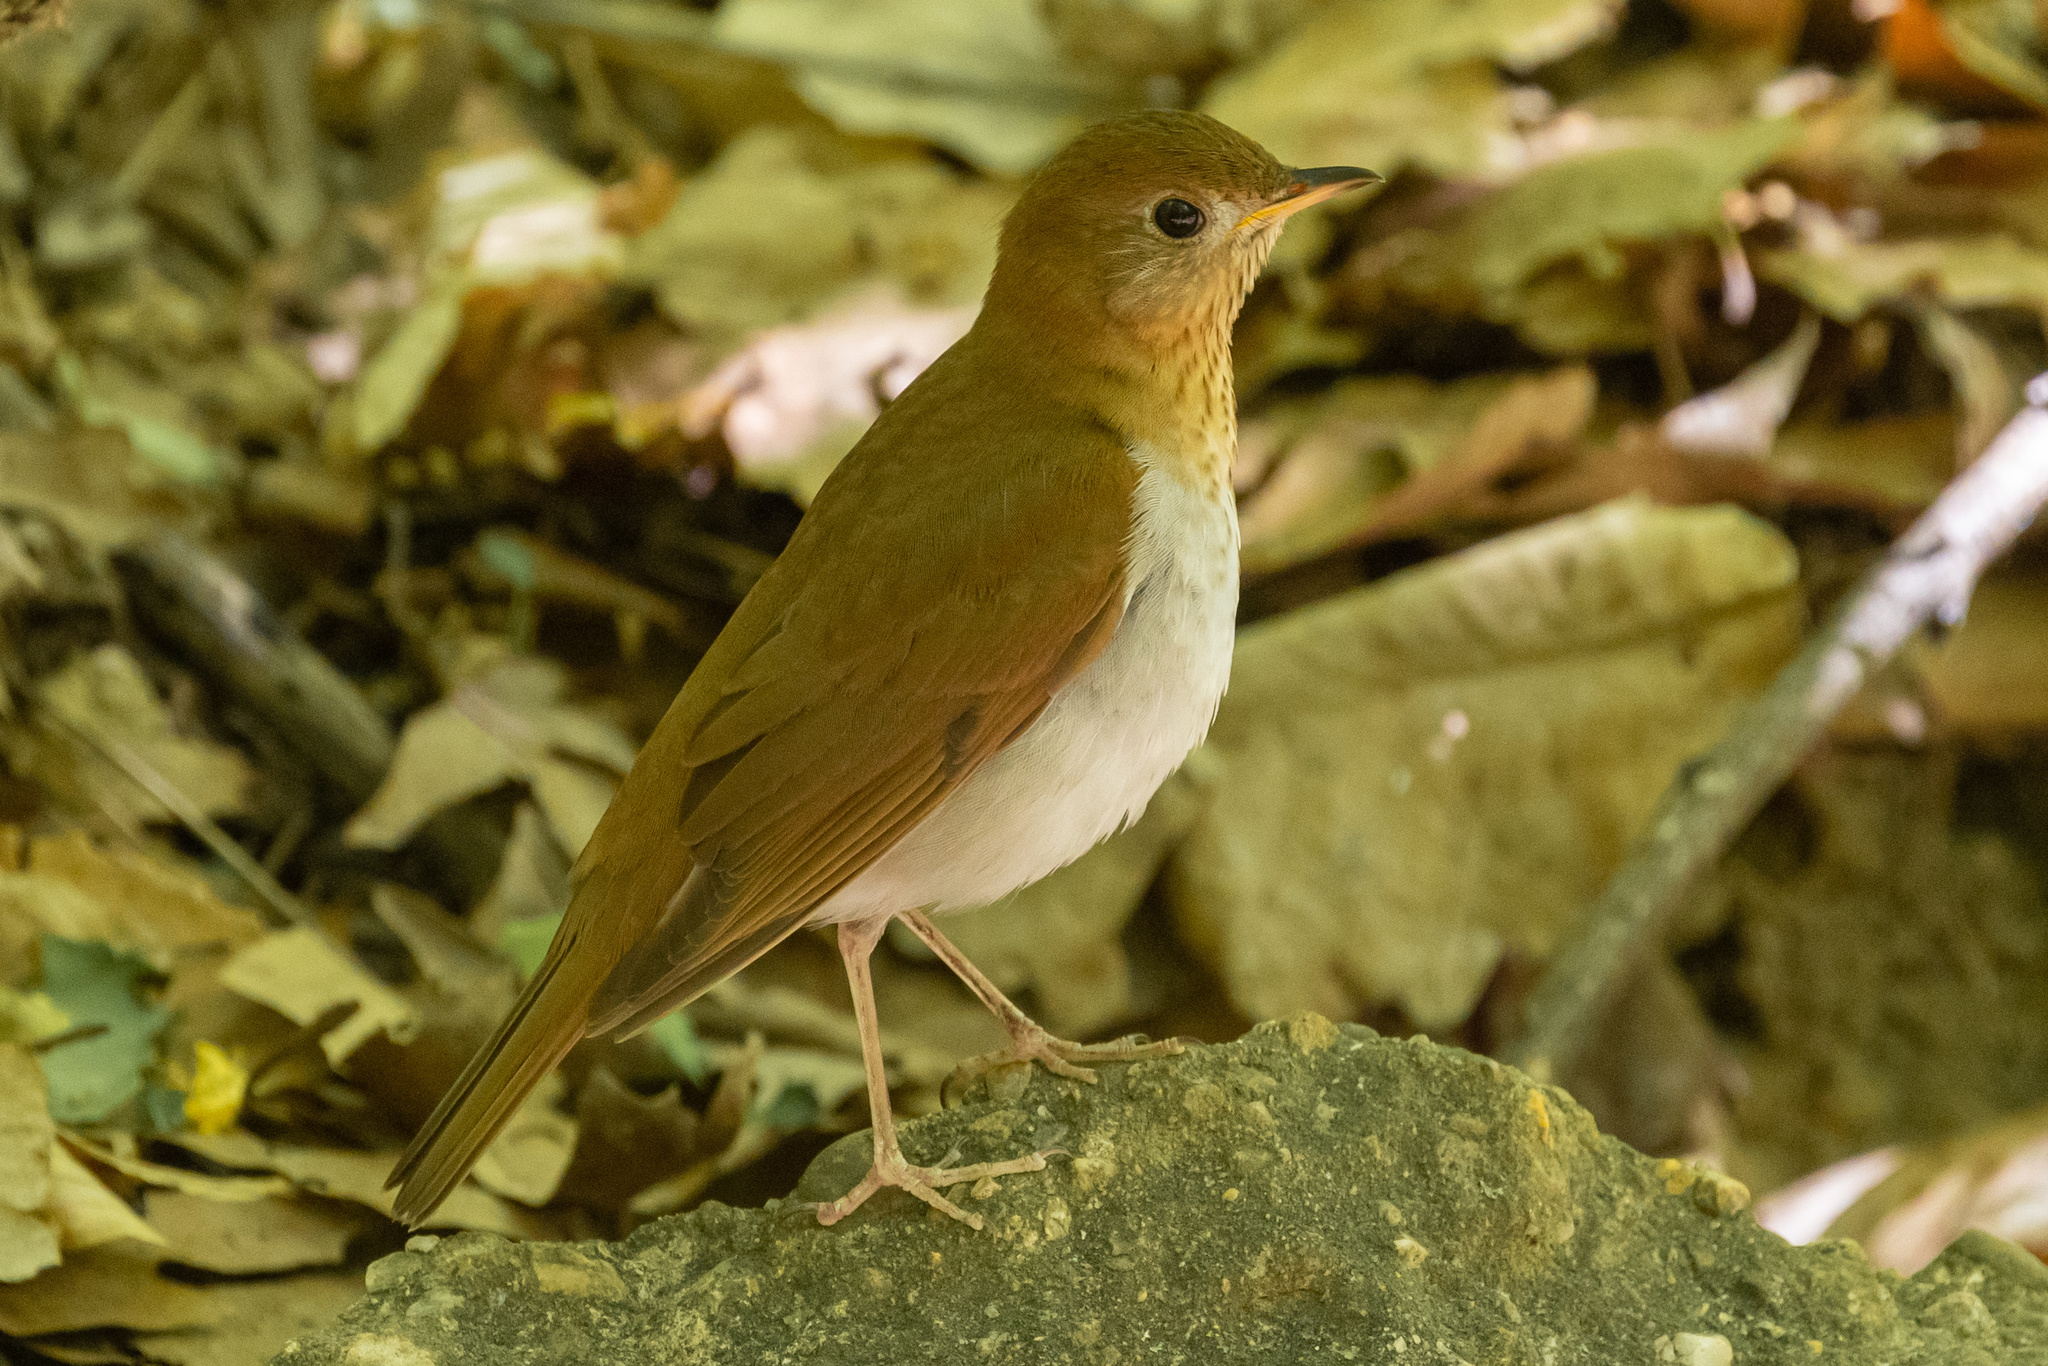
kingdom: Animalia
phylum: Chordata
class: Aves
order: Passeriformes
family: Turdidae
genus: Catharus
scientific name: Catharus fuscescens
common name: Veery
